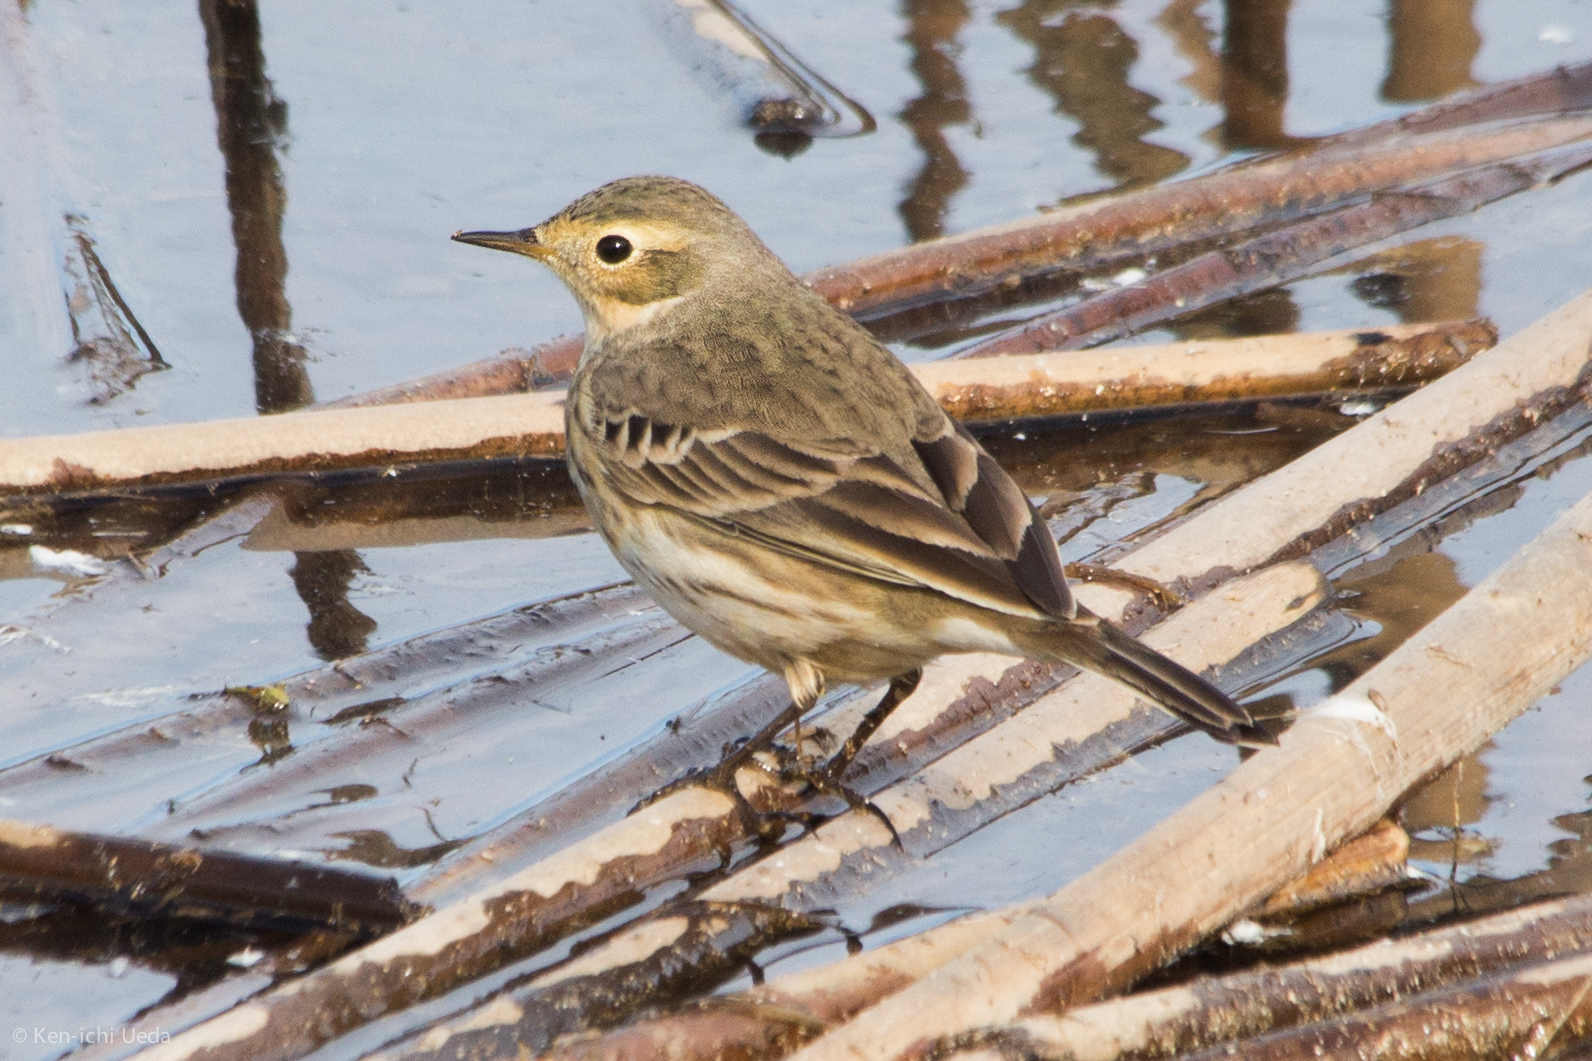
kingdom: Animalia
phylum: Chordata
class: Aves
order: Passeriformes
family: Motacillidae
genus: Anthus
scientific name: Anthus rubescens
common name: Buff-bellied pipit
